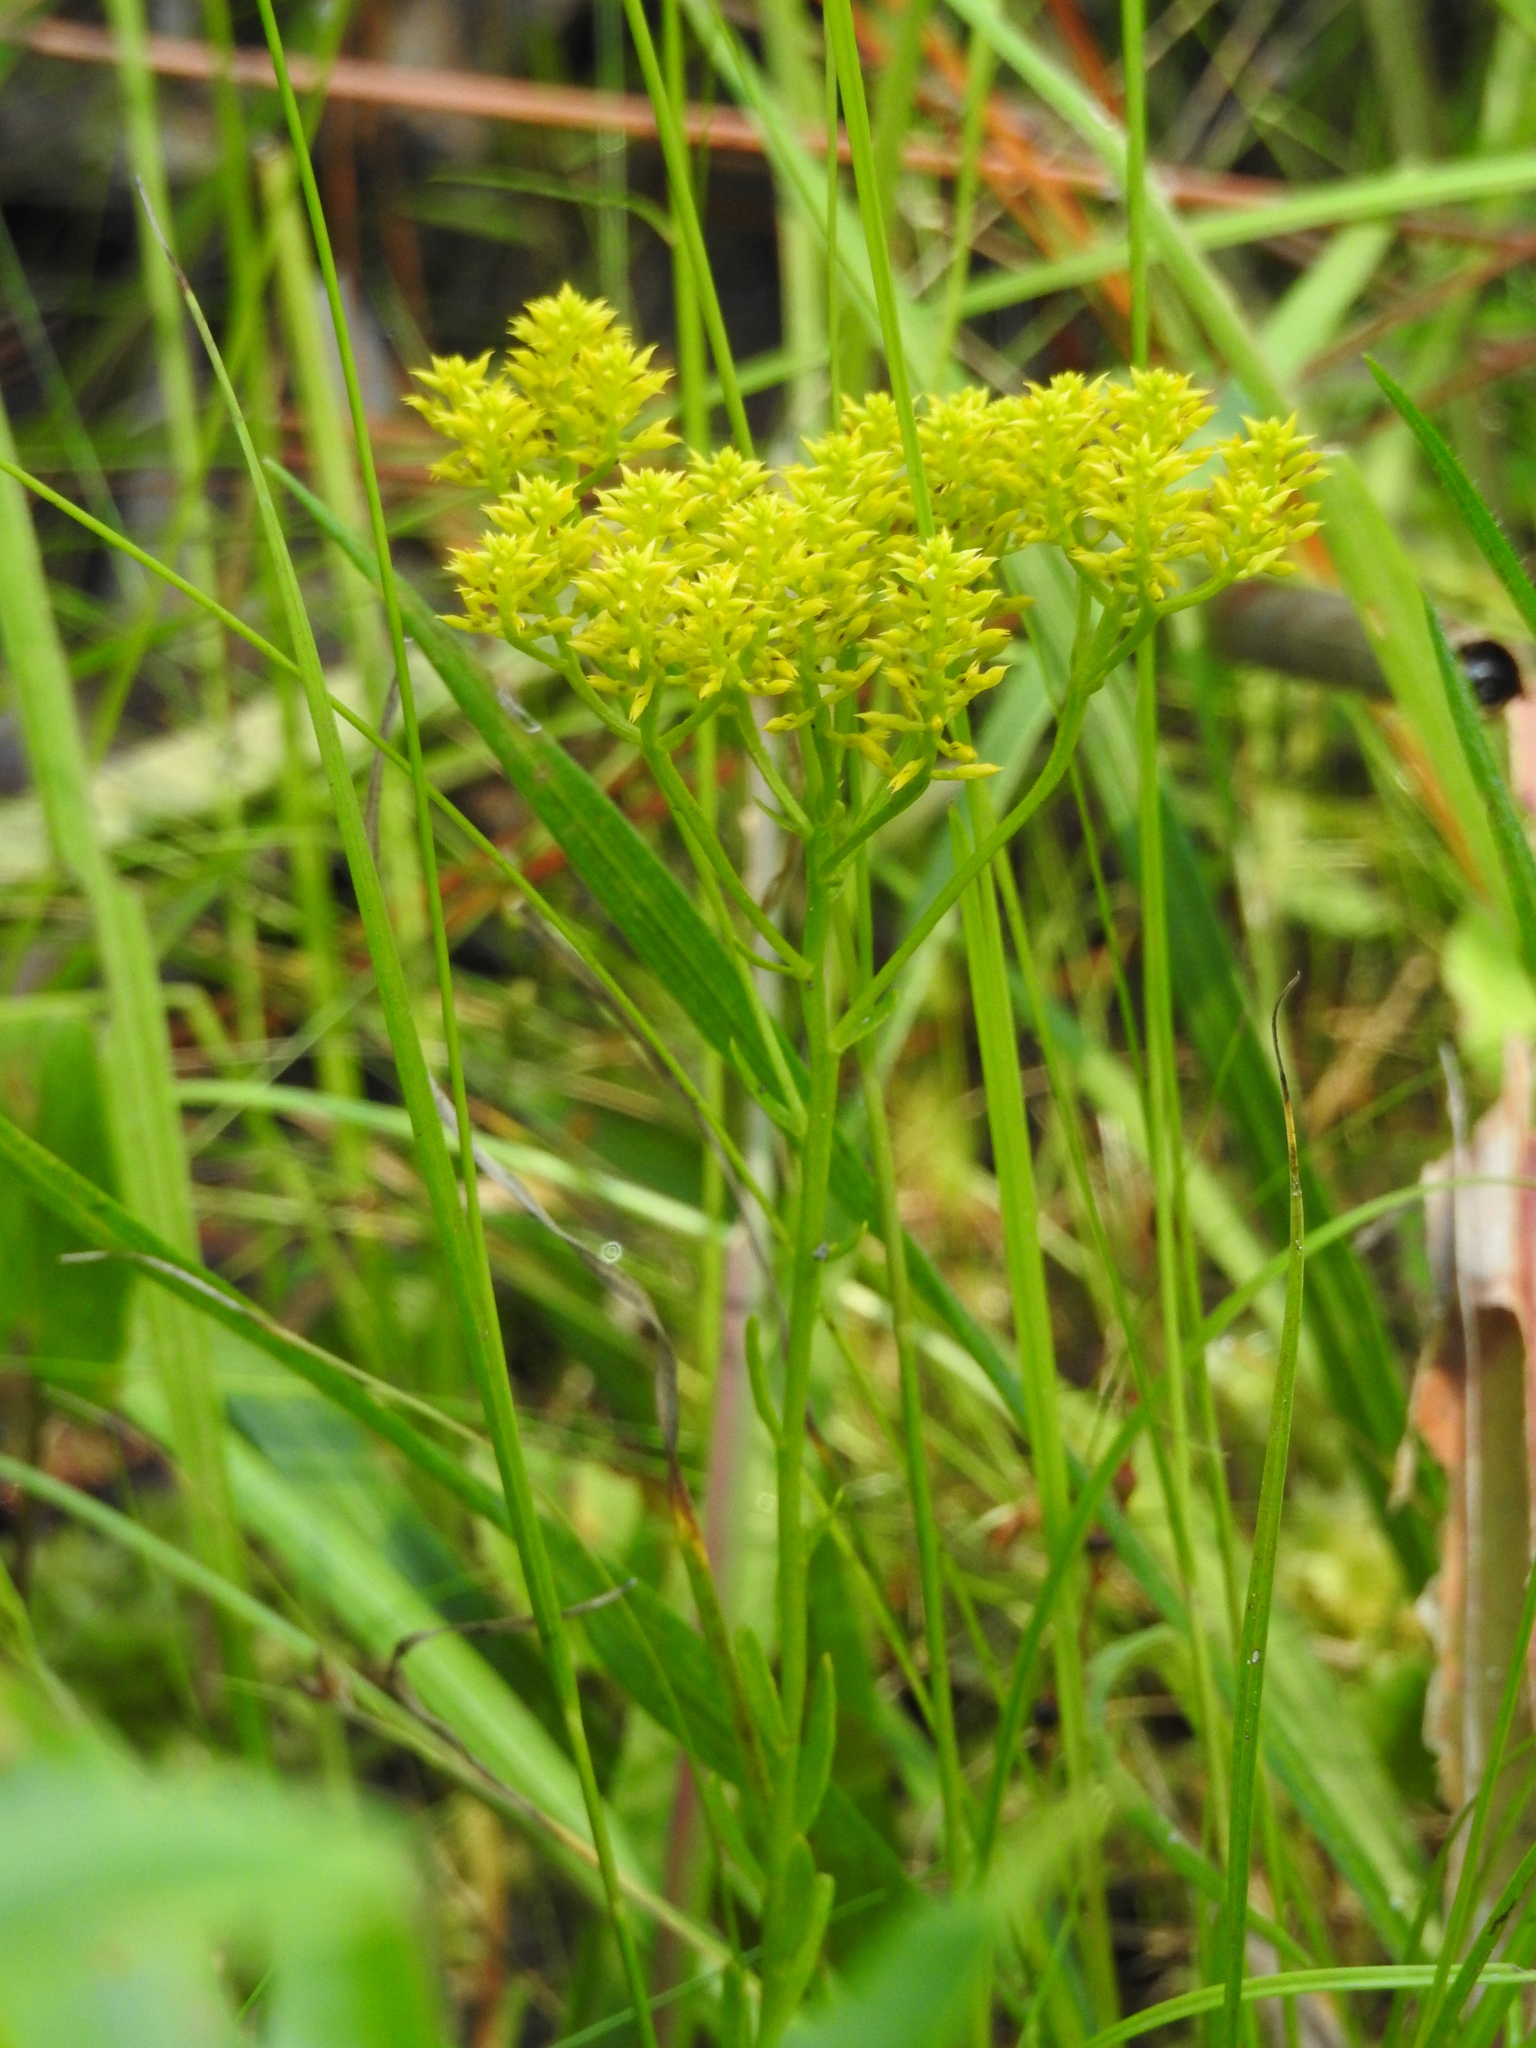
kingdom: Plantae
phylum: Tracheophyta
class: Magnoliopsida
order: Fabales
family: Polygalaceae
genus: Polygala
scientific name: Polygala ramosa
